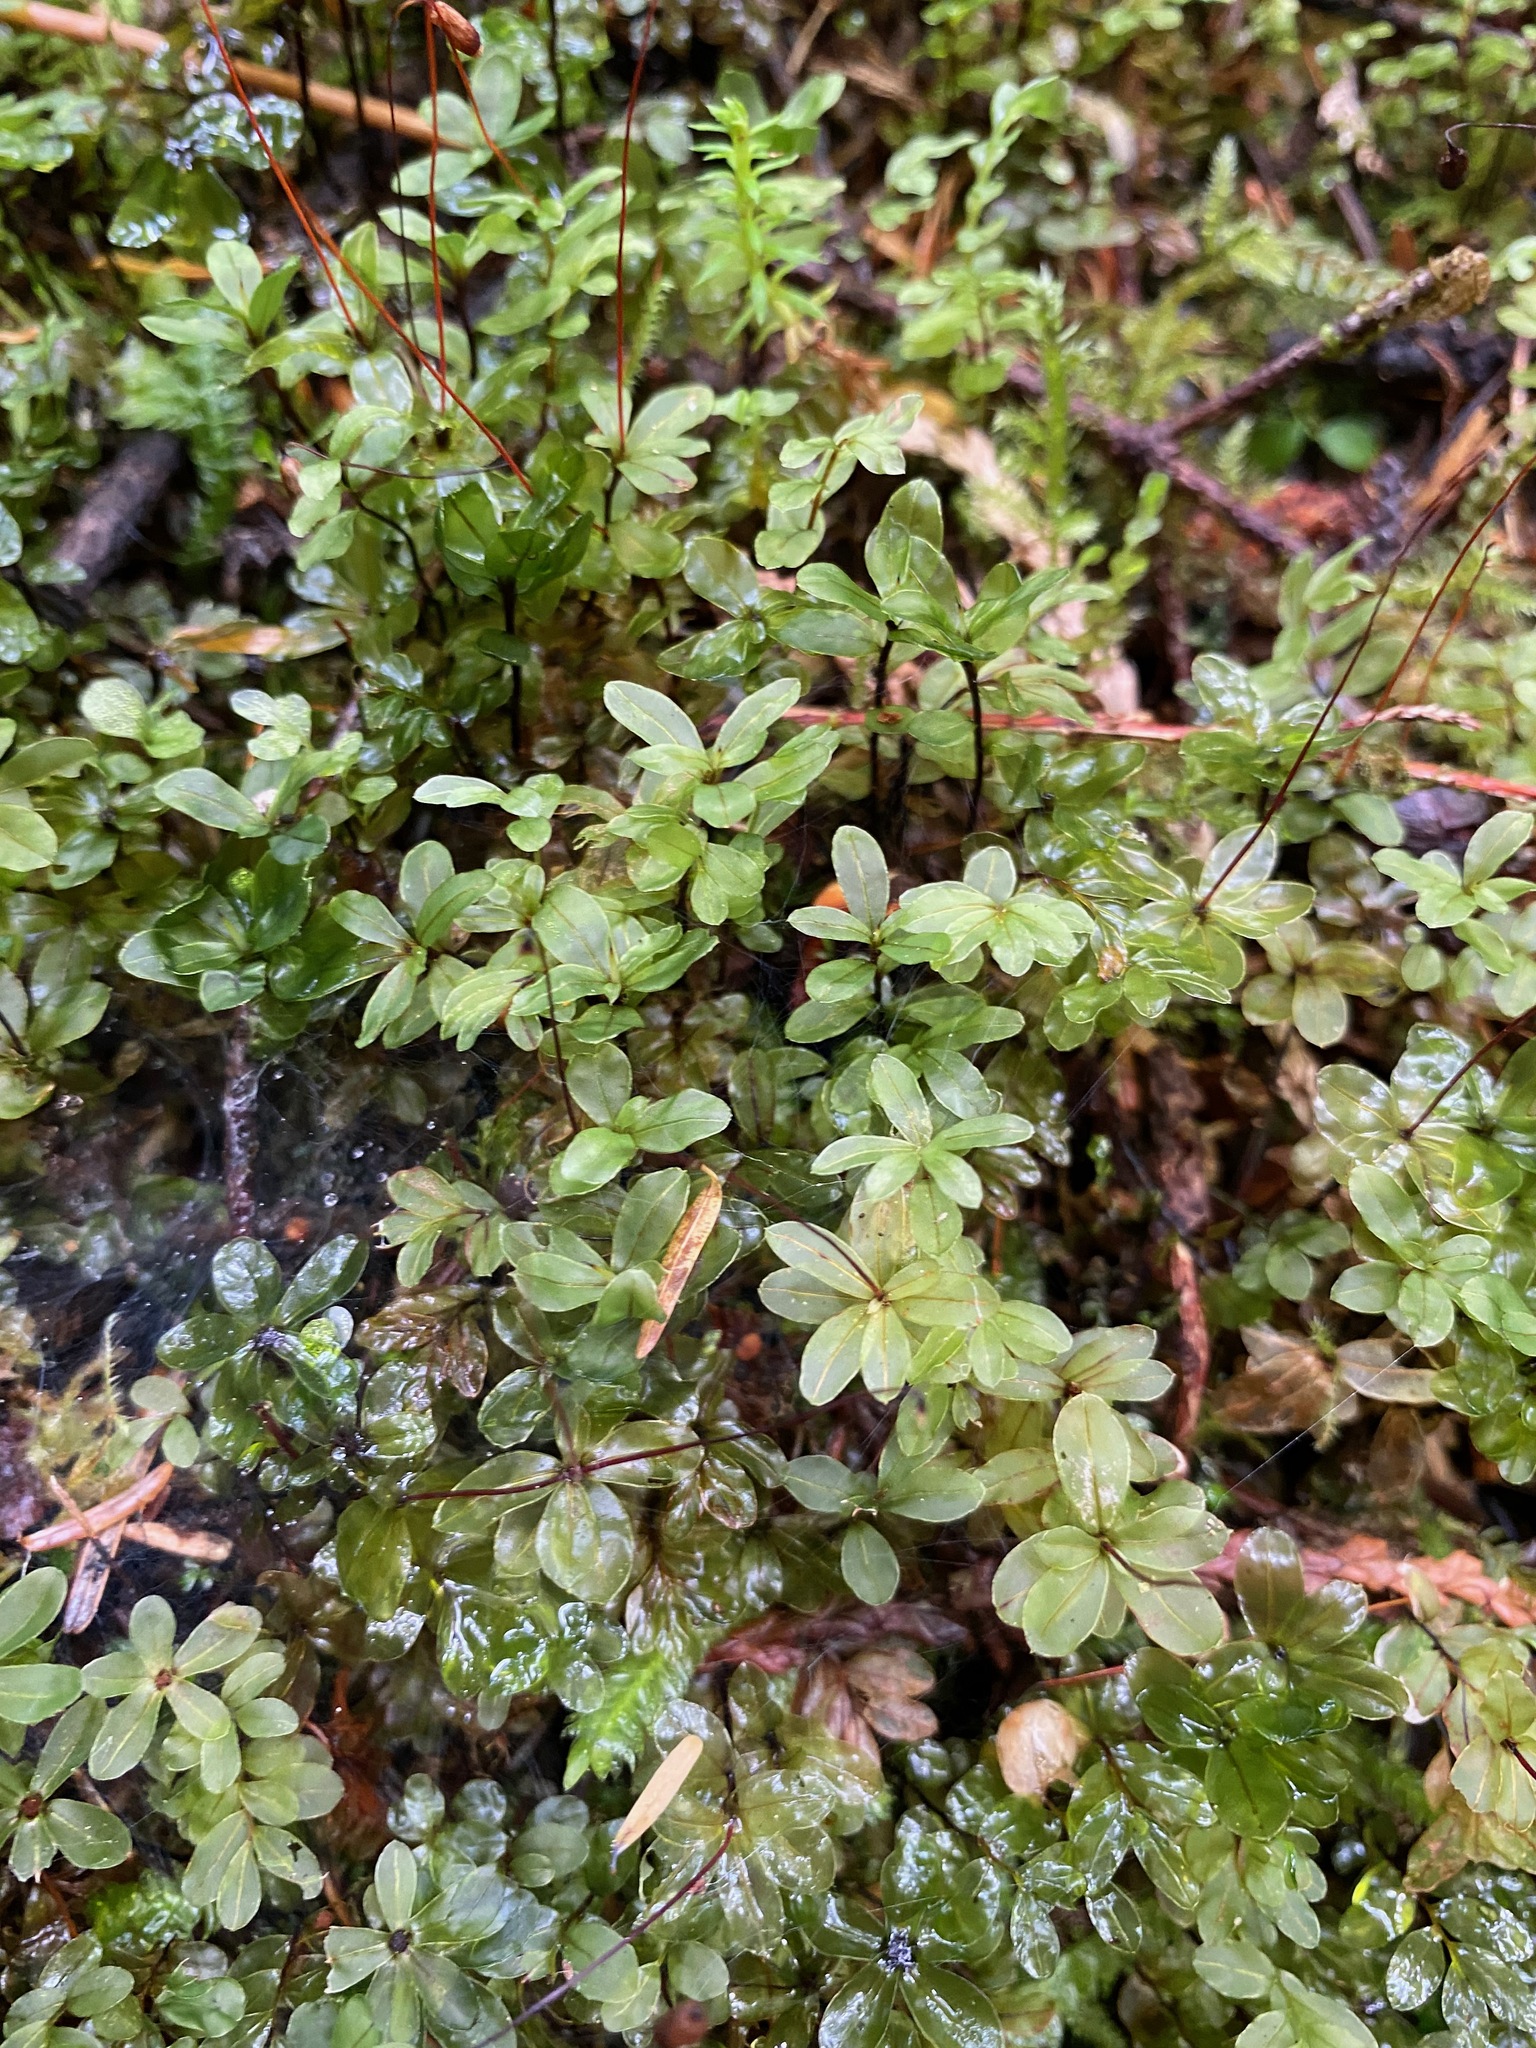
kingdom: Plantae
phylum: Bryophyta
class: Bryopsida
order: Bryales
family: Mniaceae
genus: Rhizomnium
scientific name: Rhizomnium glabrescens
